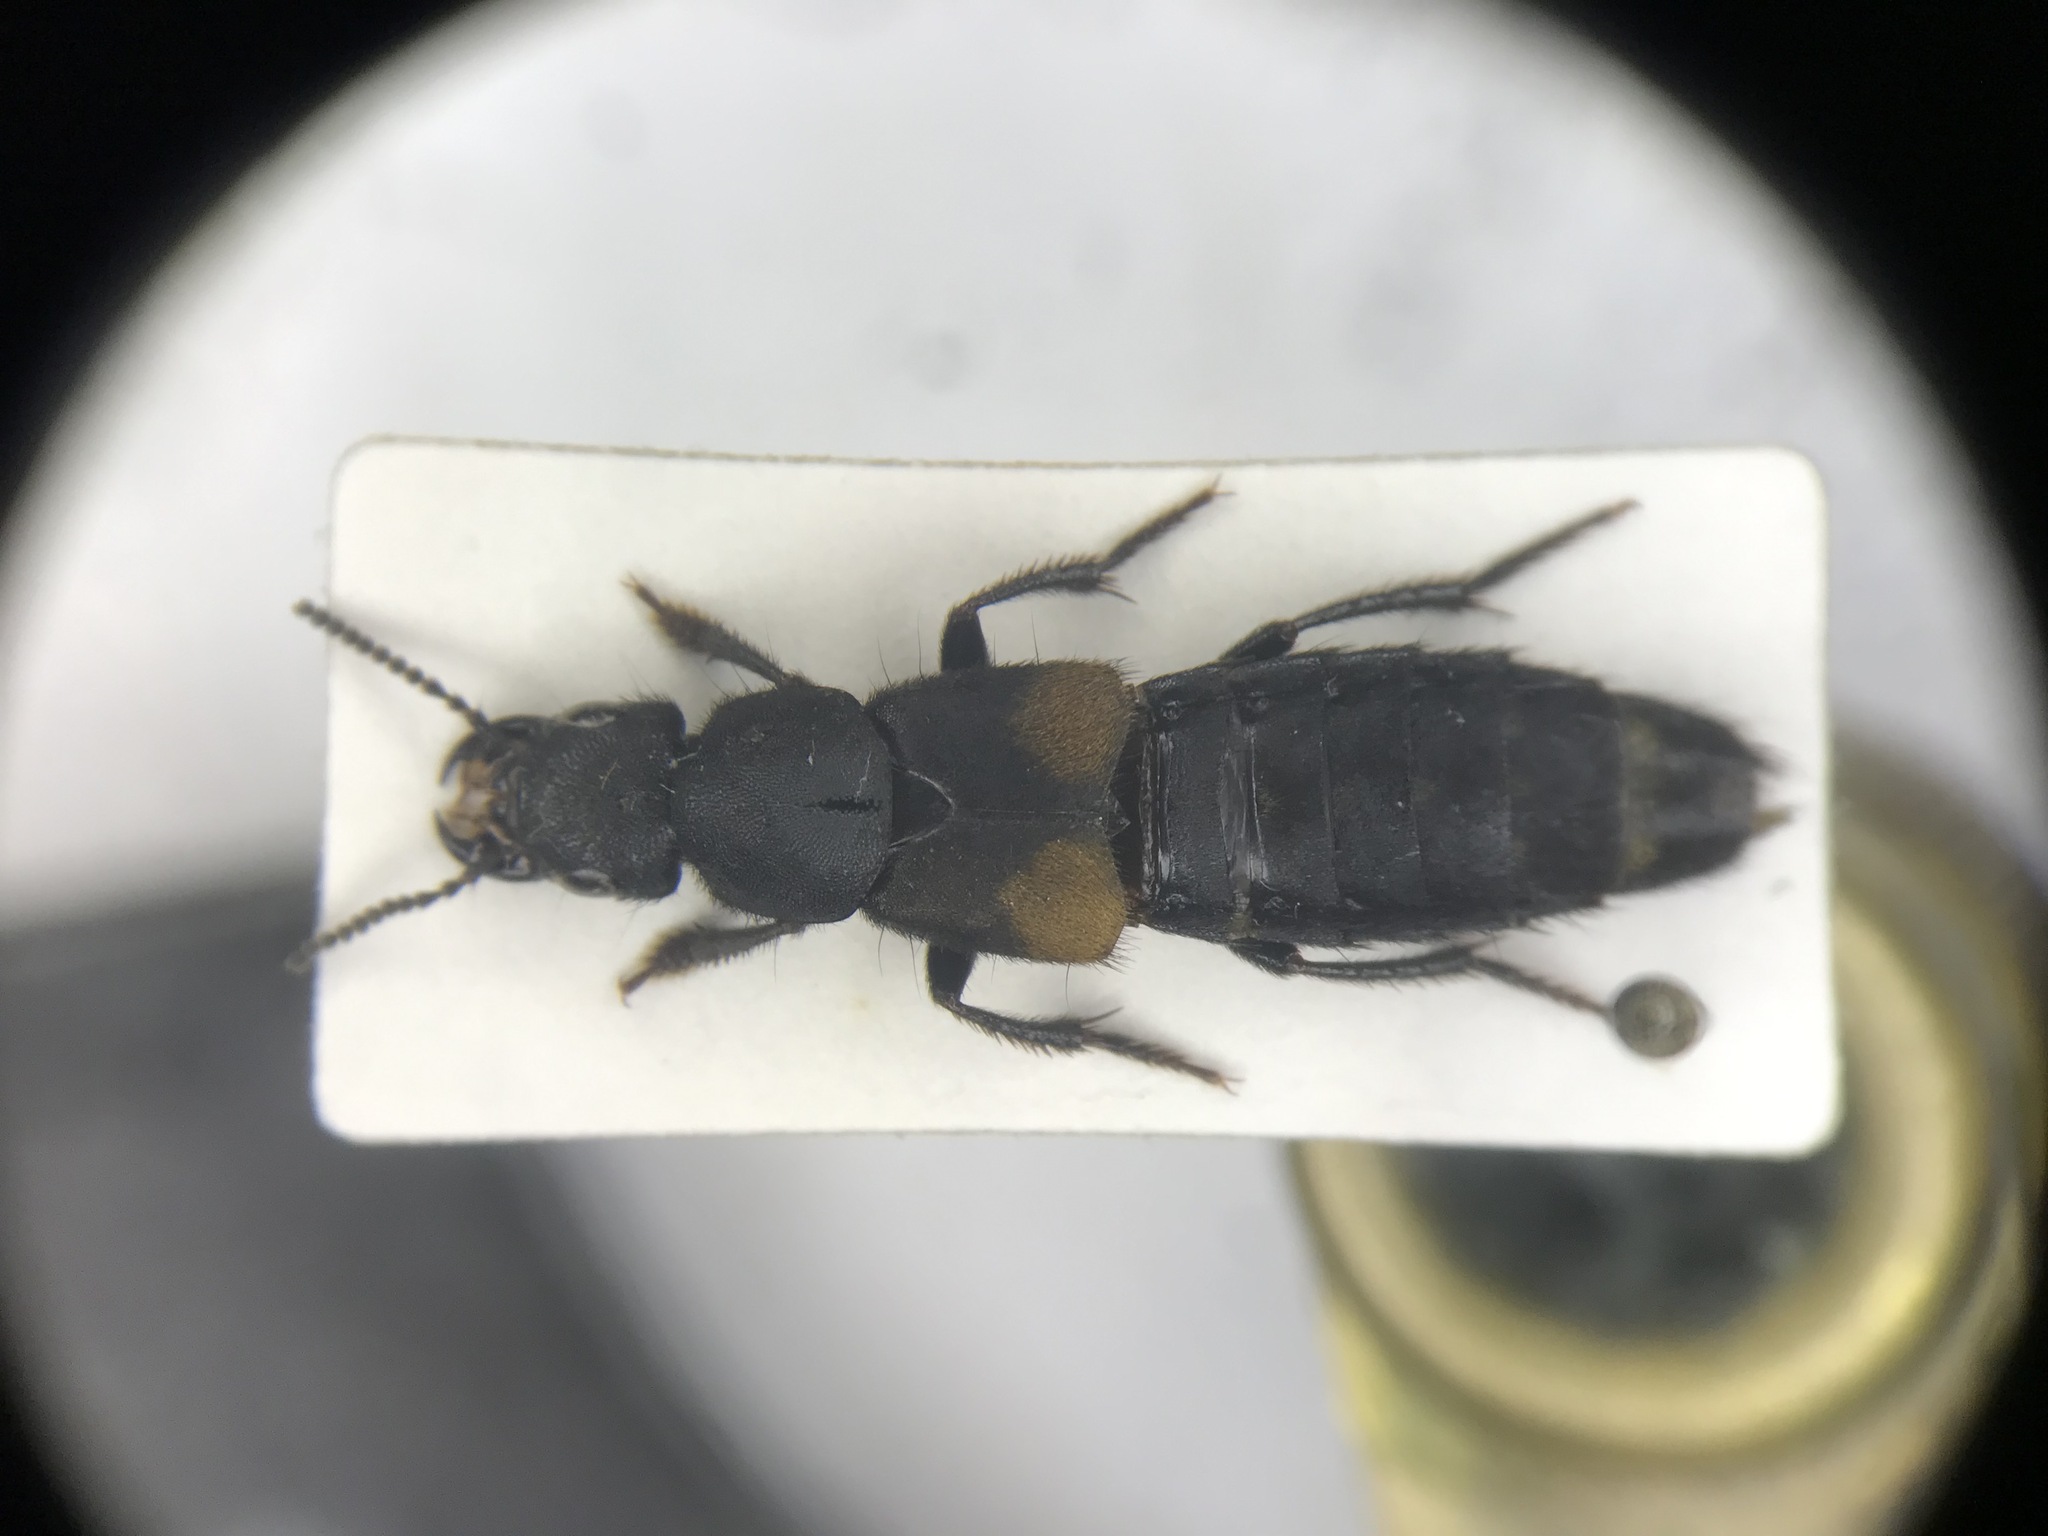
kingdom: Animalia
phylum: Arthropoda
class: Insecta
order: Coleoptera
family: Staphylinidae
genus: Platydracus
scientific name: Platydracus fossator
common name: Red-spotted rove beetle
